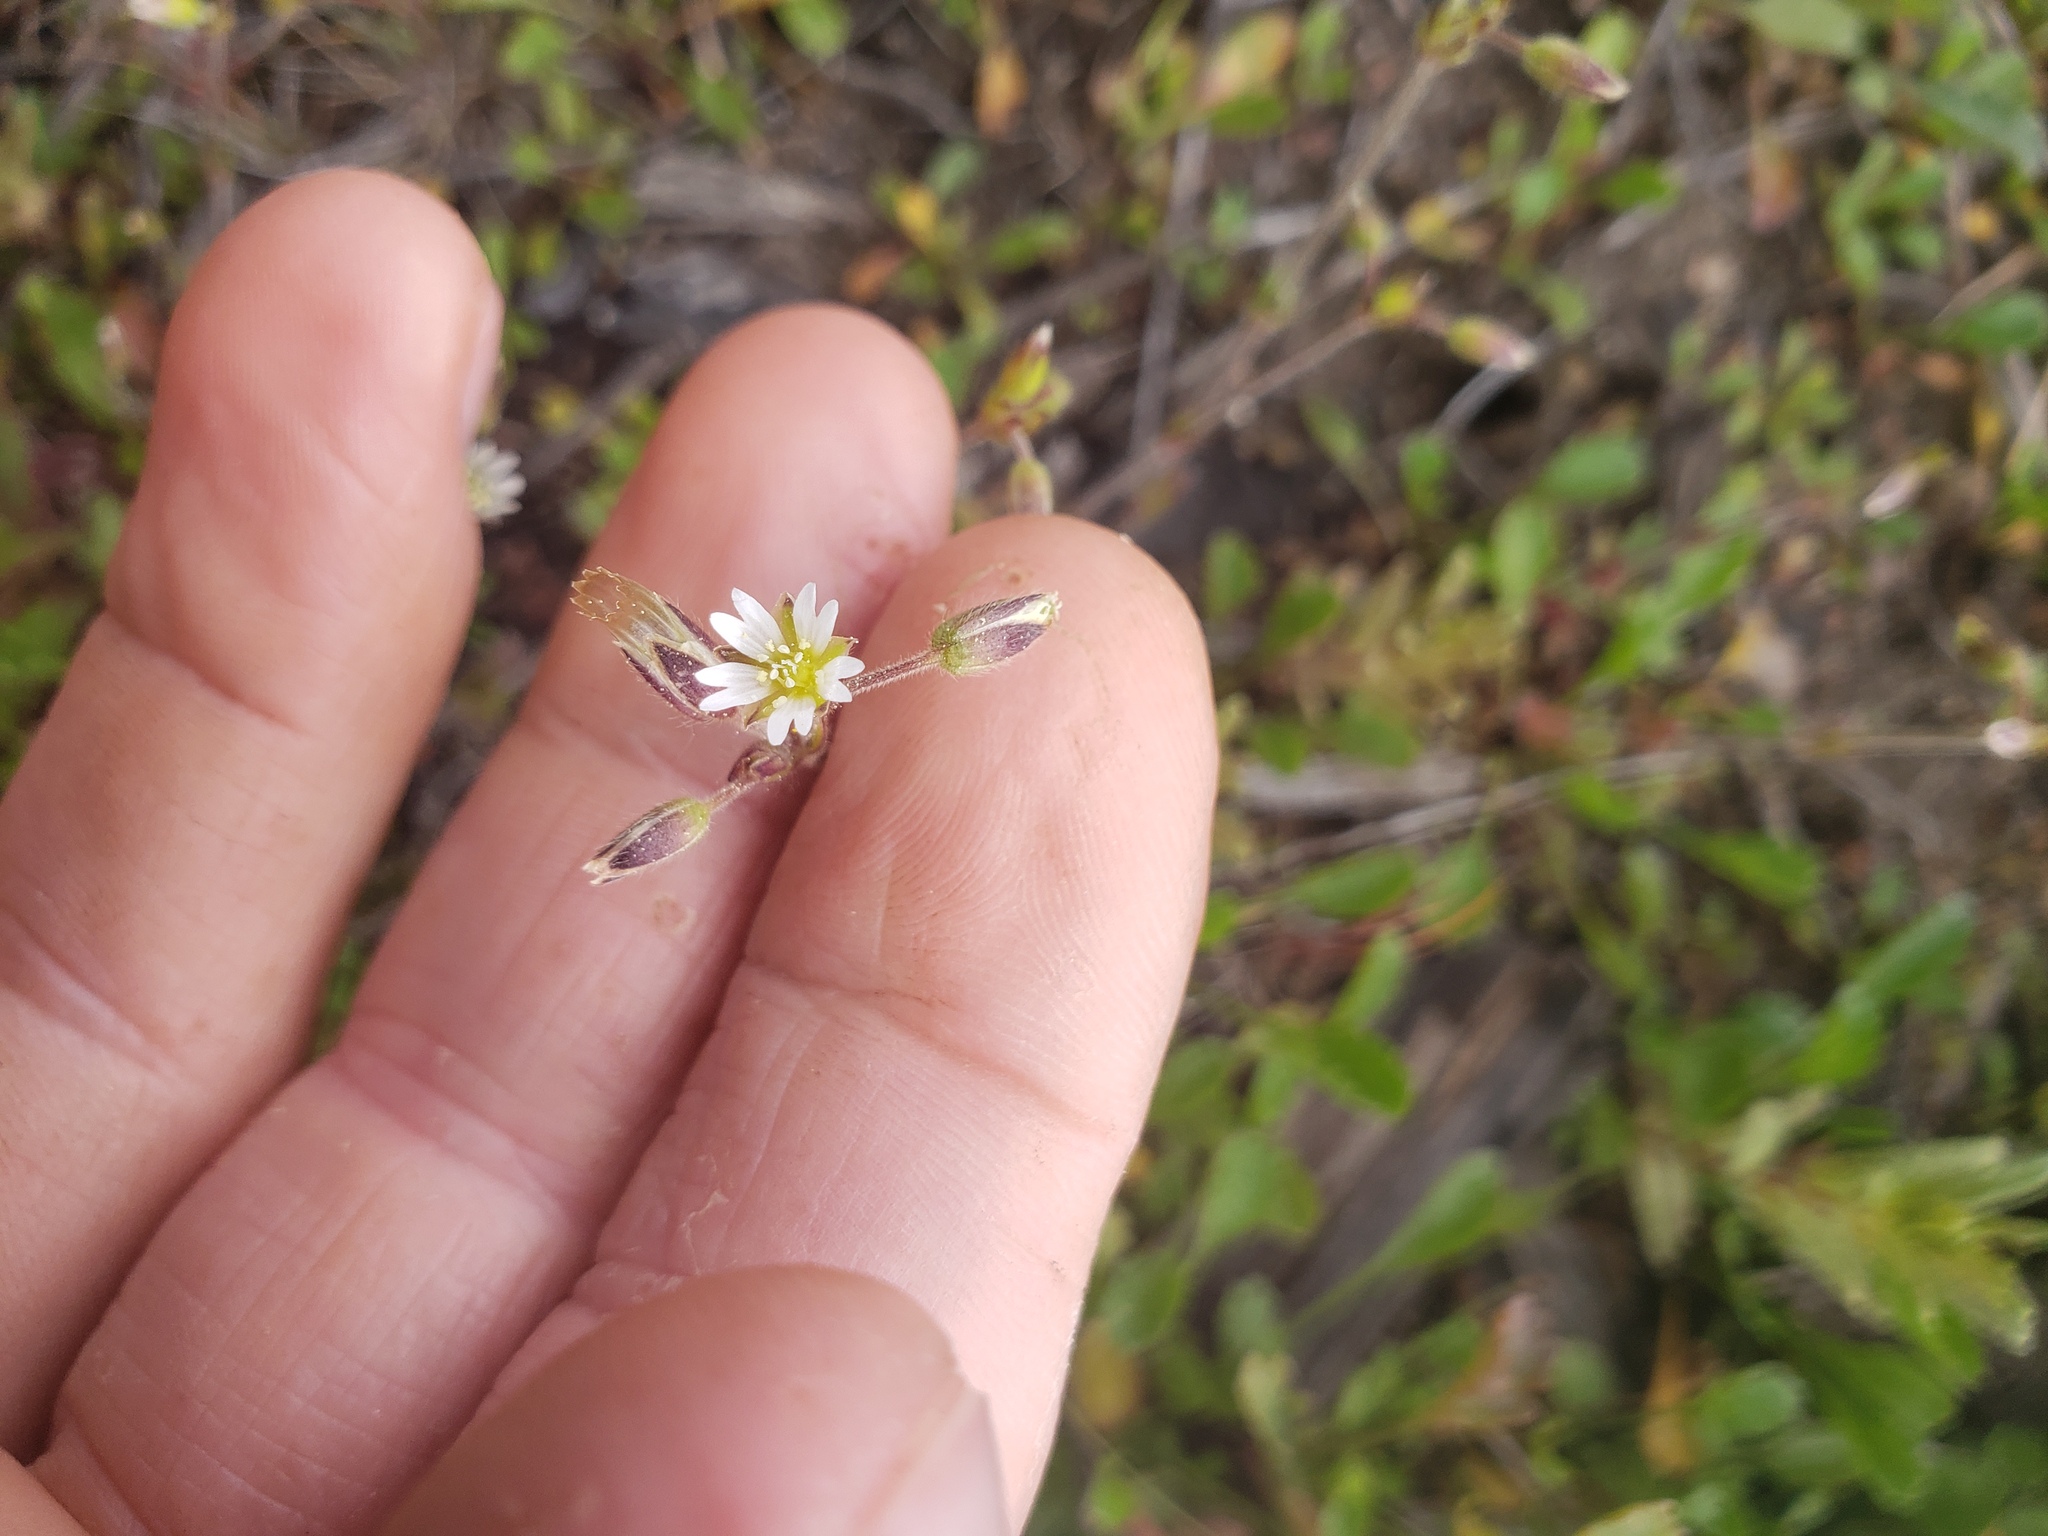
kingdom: Plantae
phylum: Tracheophyta
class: Magnoliopsida
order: Caryophyllales
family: Caryophyllaceae
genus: Cerastium
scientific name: Cerastium fontanum
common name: Common mouse-ear
